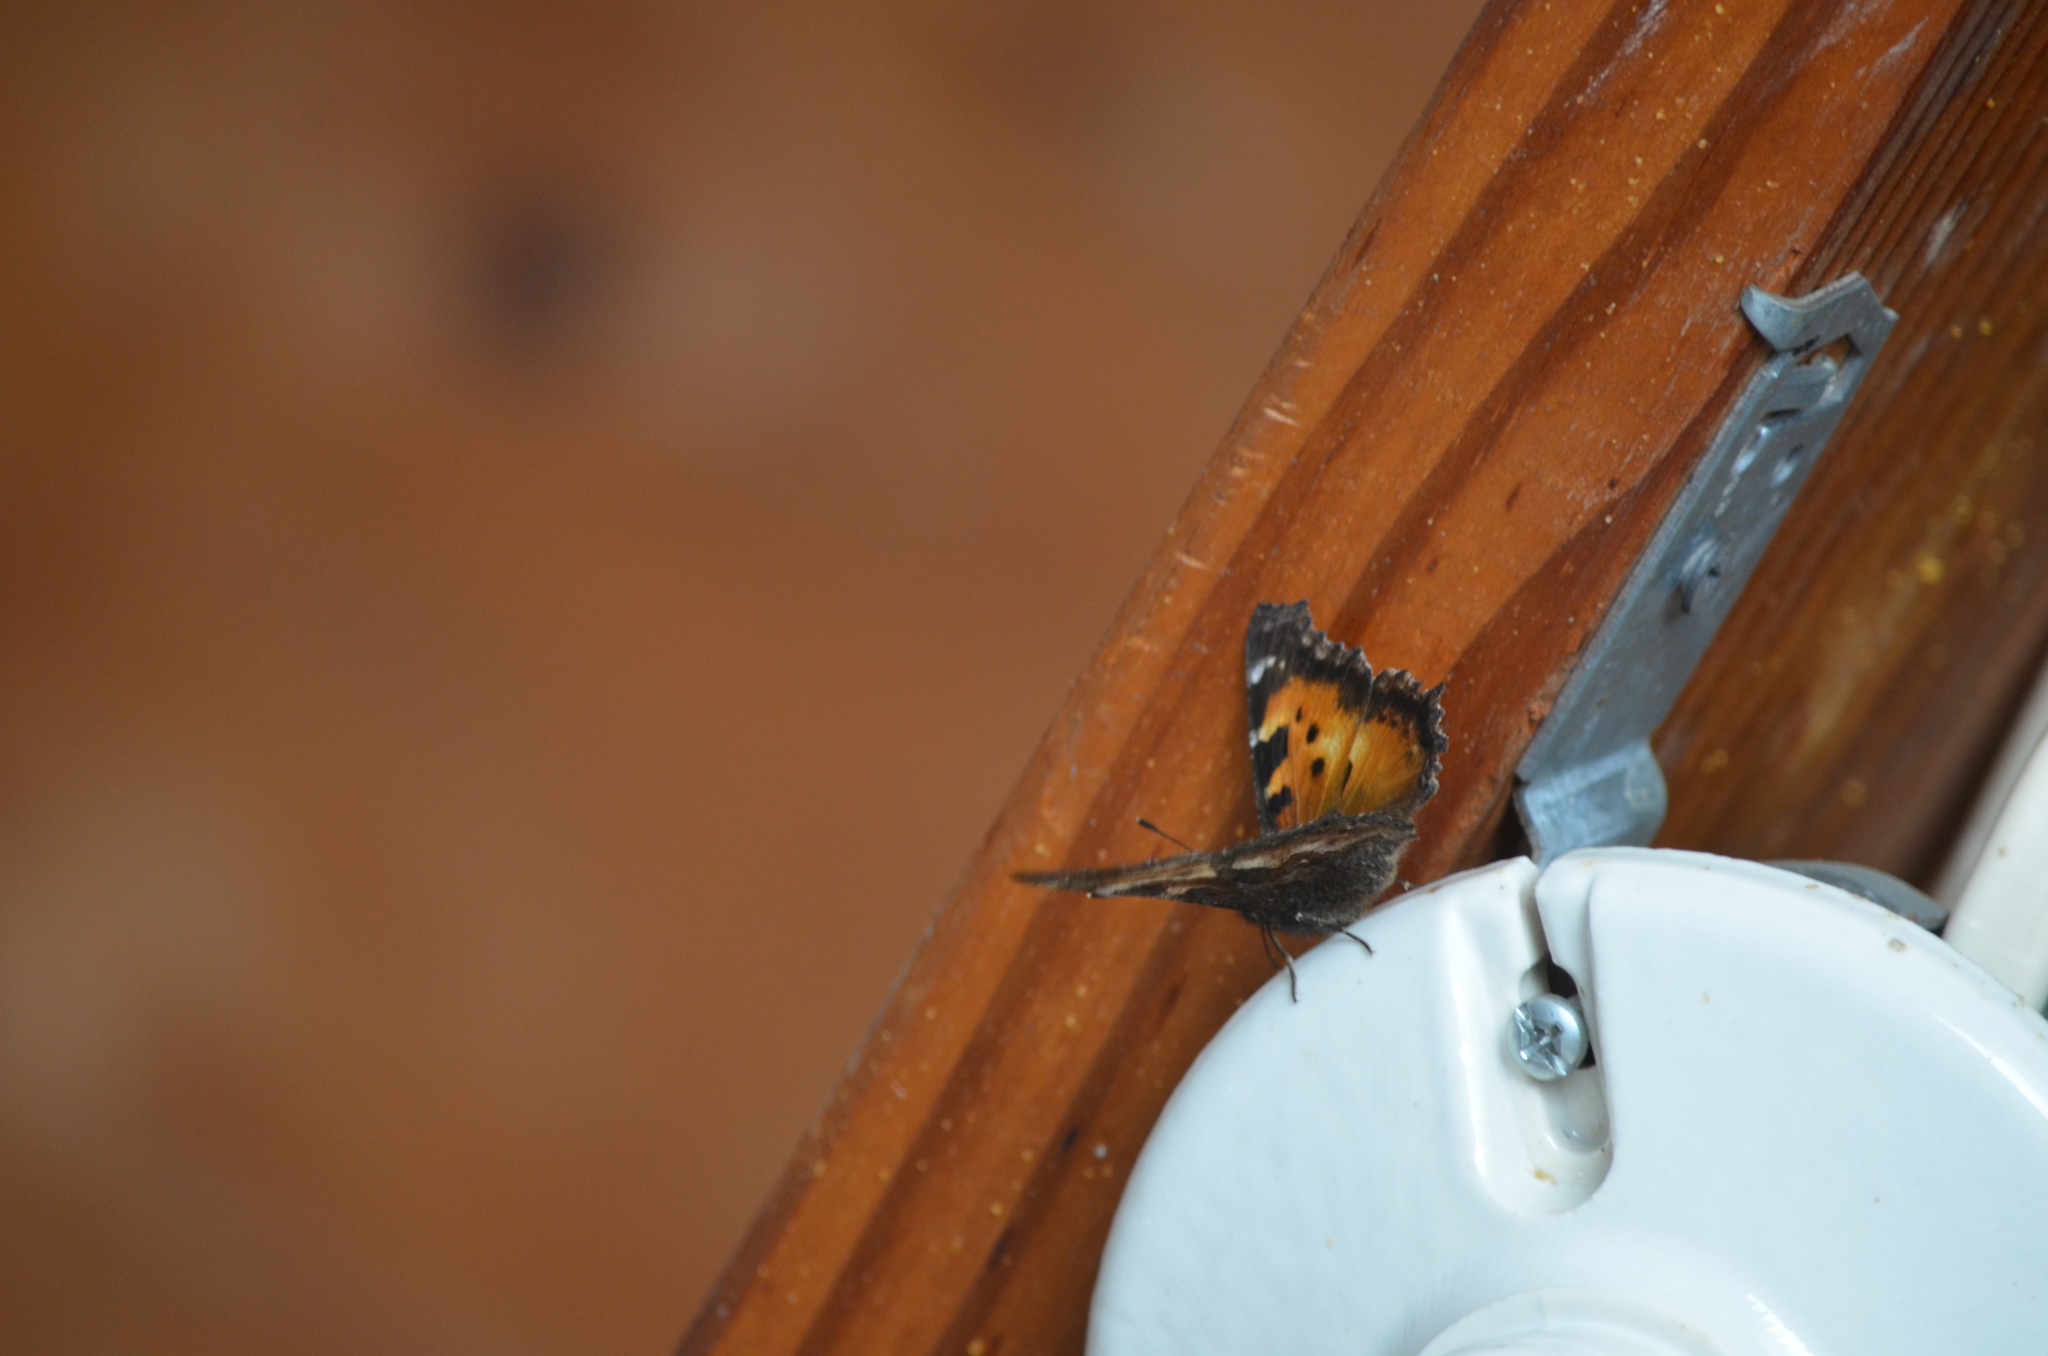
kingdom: Animalia
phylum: Arthropoda
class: Insecta
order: Lepidoptera
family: Nymphalidae
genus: Nymphalis
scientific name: Nymphalis californica
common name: California tortoiseshell
